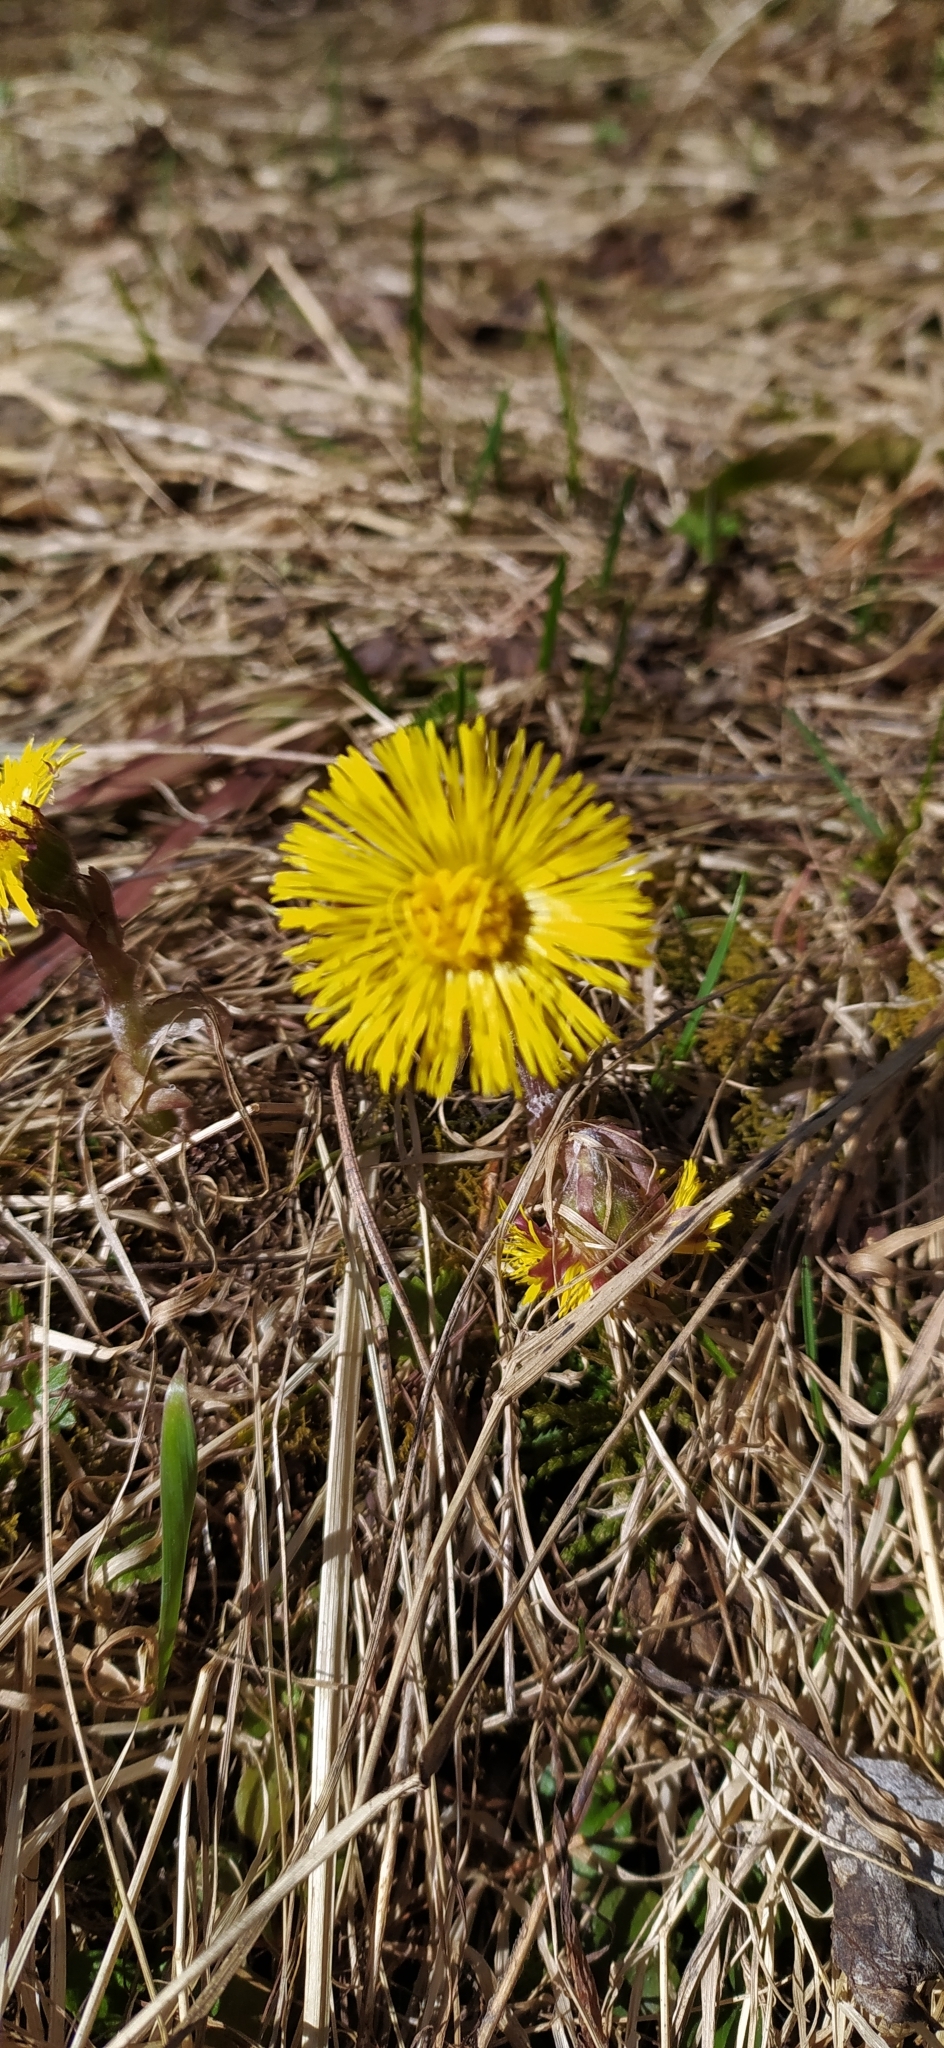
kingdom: Plantae
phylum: Tracheophyta
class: Magnoliopsida
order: Asterales
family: Asteraceae
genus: Tussilago
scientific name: Tussilago farfara
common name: Coltsfoot
